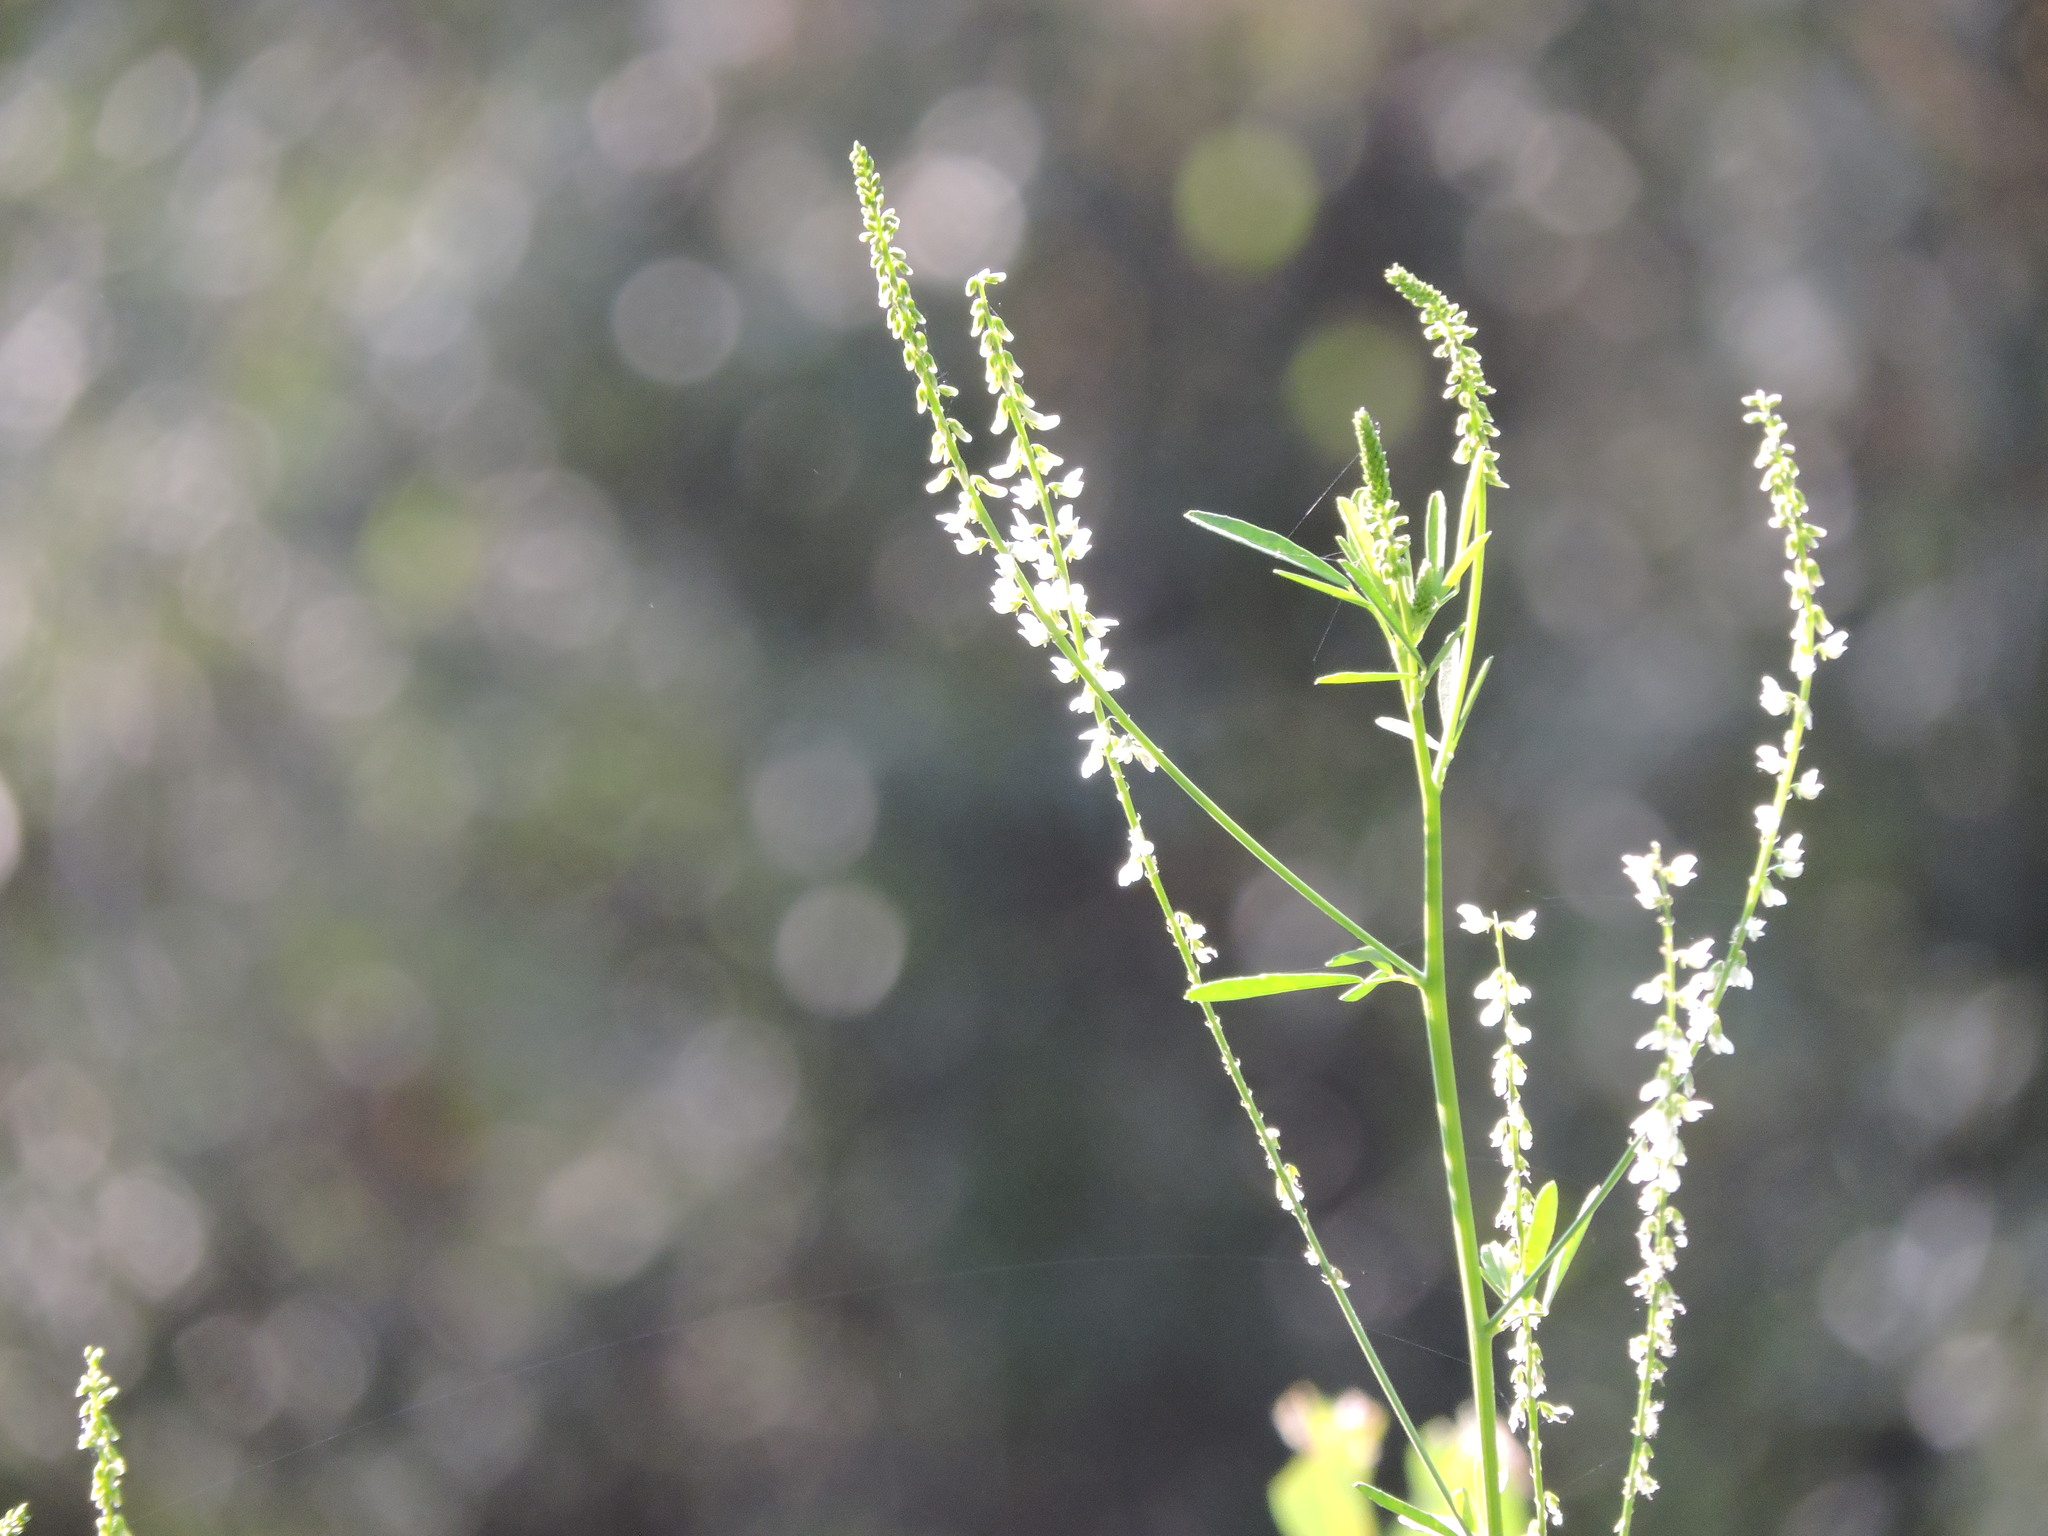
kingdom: Plantae
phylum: Tracheophyta
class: Magnoliopsida
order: Fabales
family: Fabaceae
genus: Melilotus
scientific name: Melilotus albus
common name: White melilot
